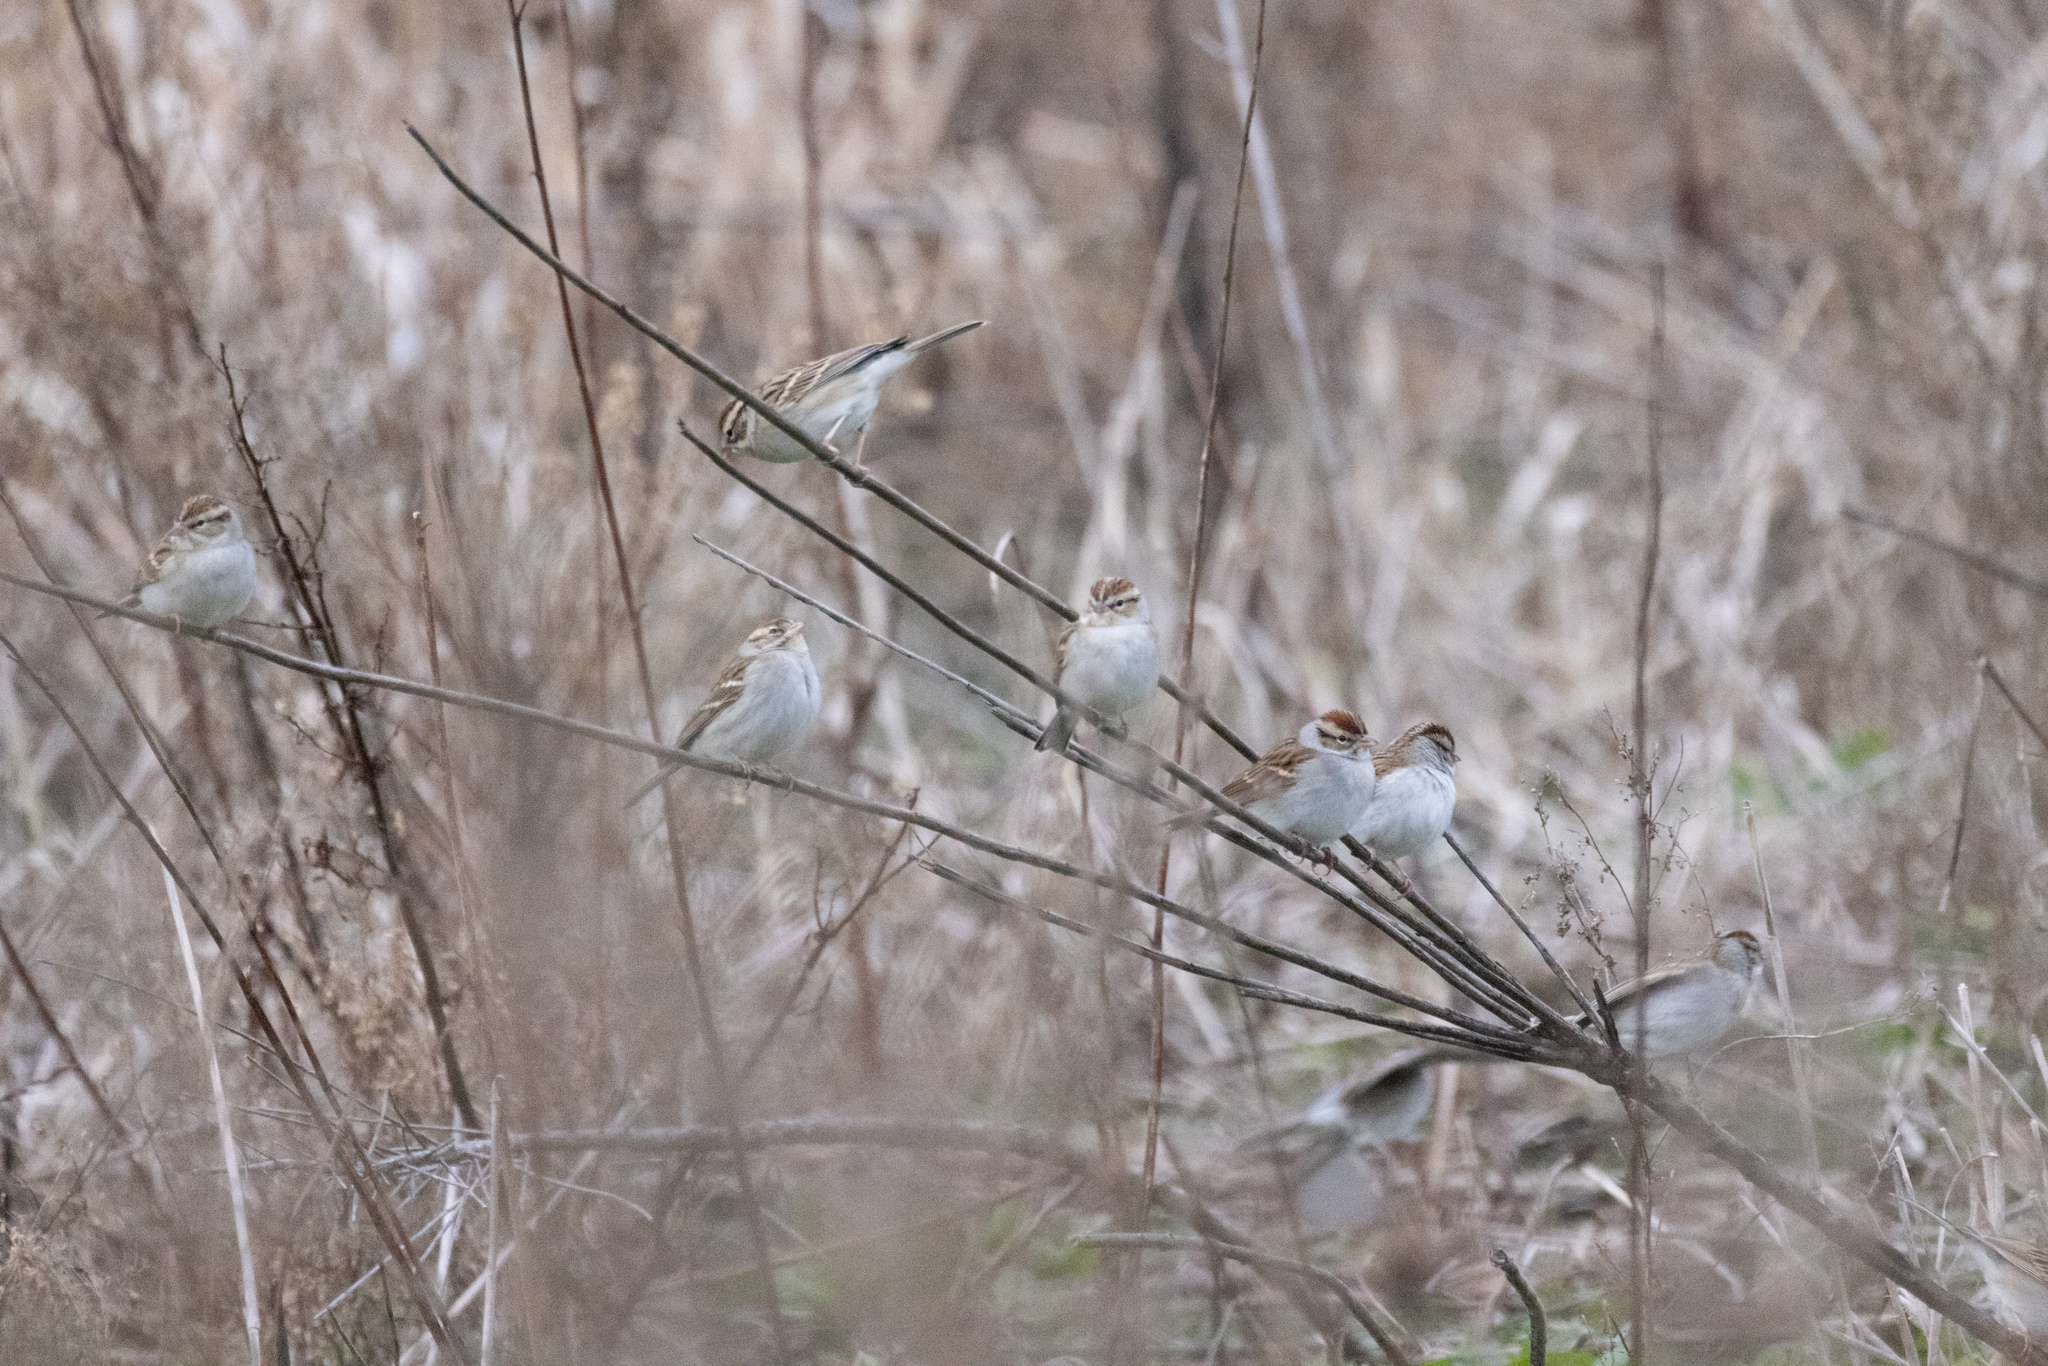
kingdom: Animalia
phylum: Chordata
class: Aves
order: Passeriformes
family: Passerellidae
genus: Spizella
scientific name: Spizella passerina
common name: Chipping sparrow
